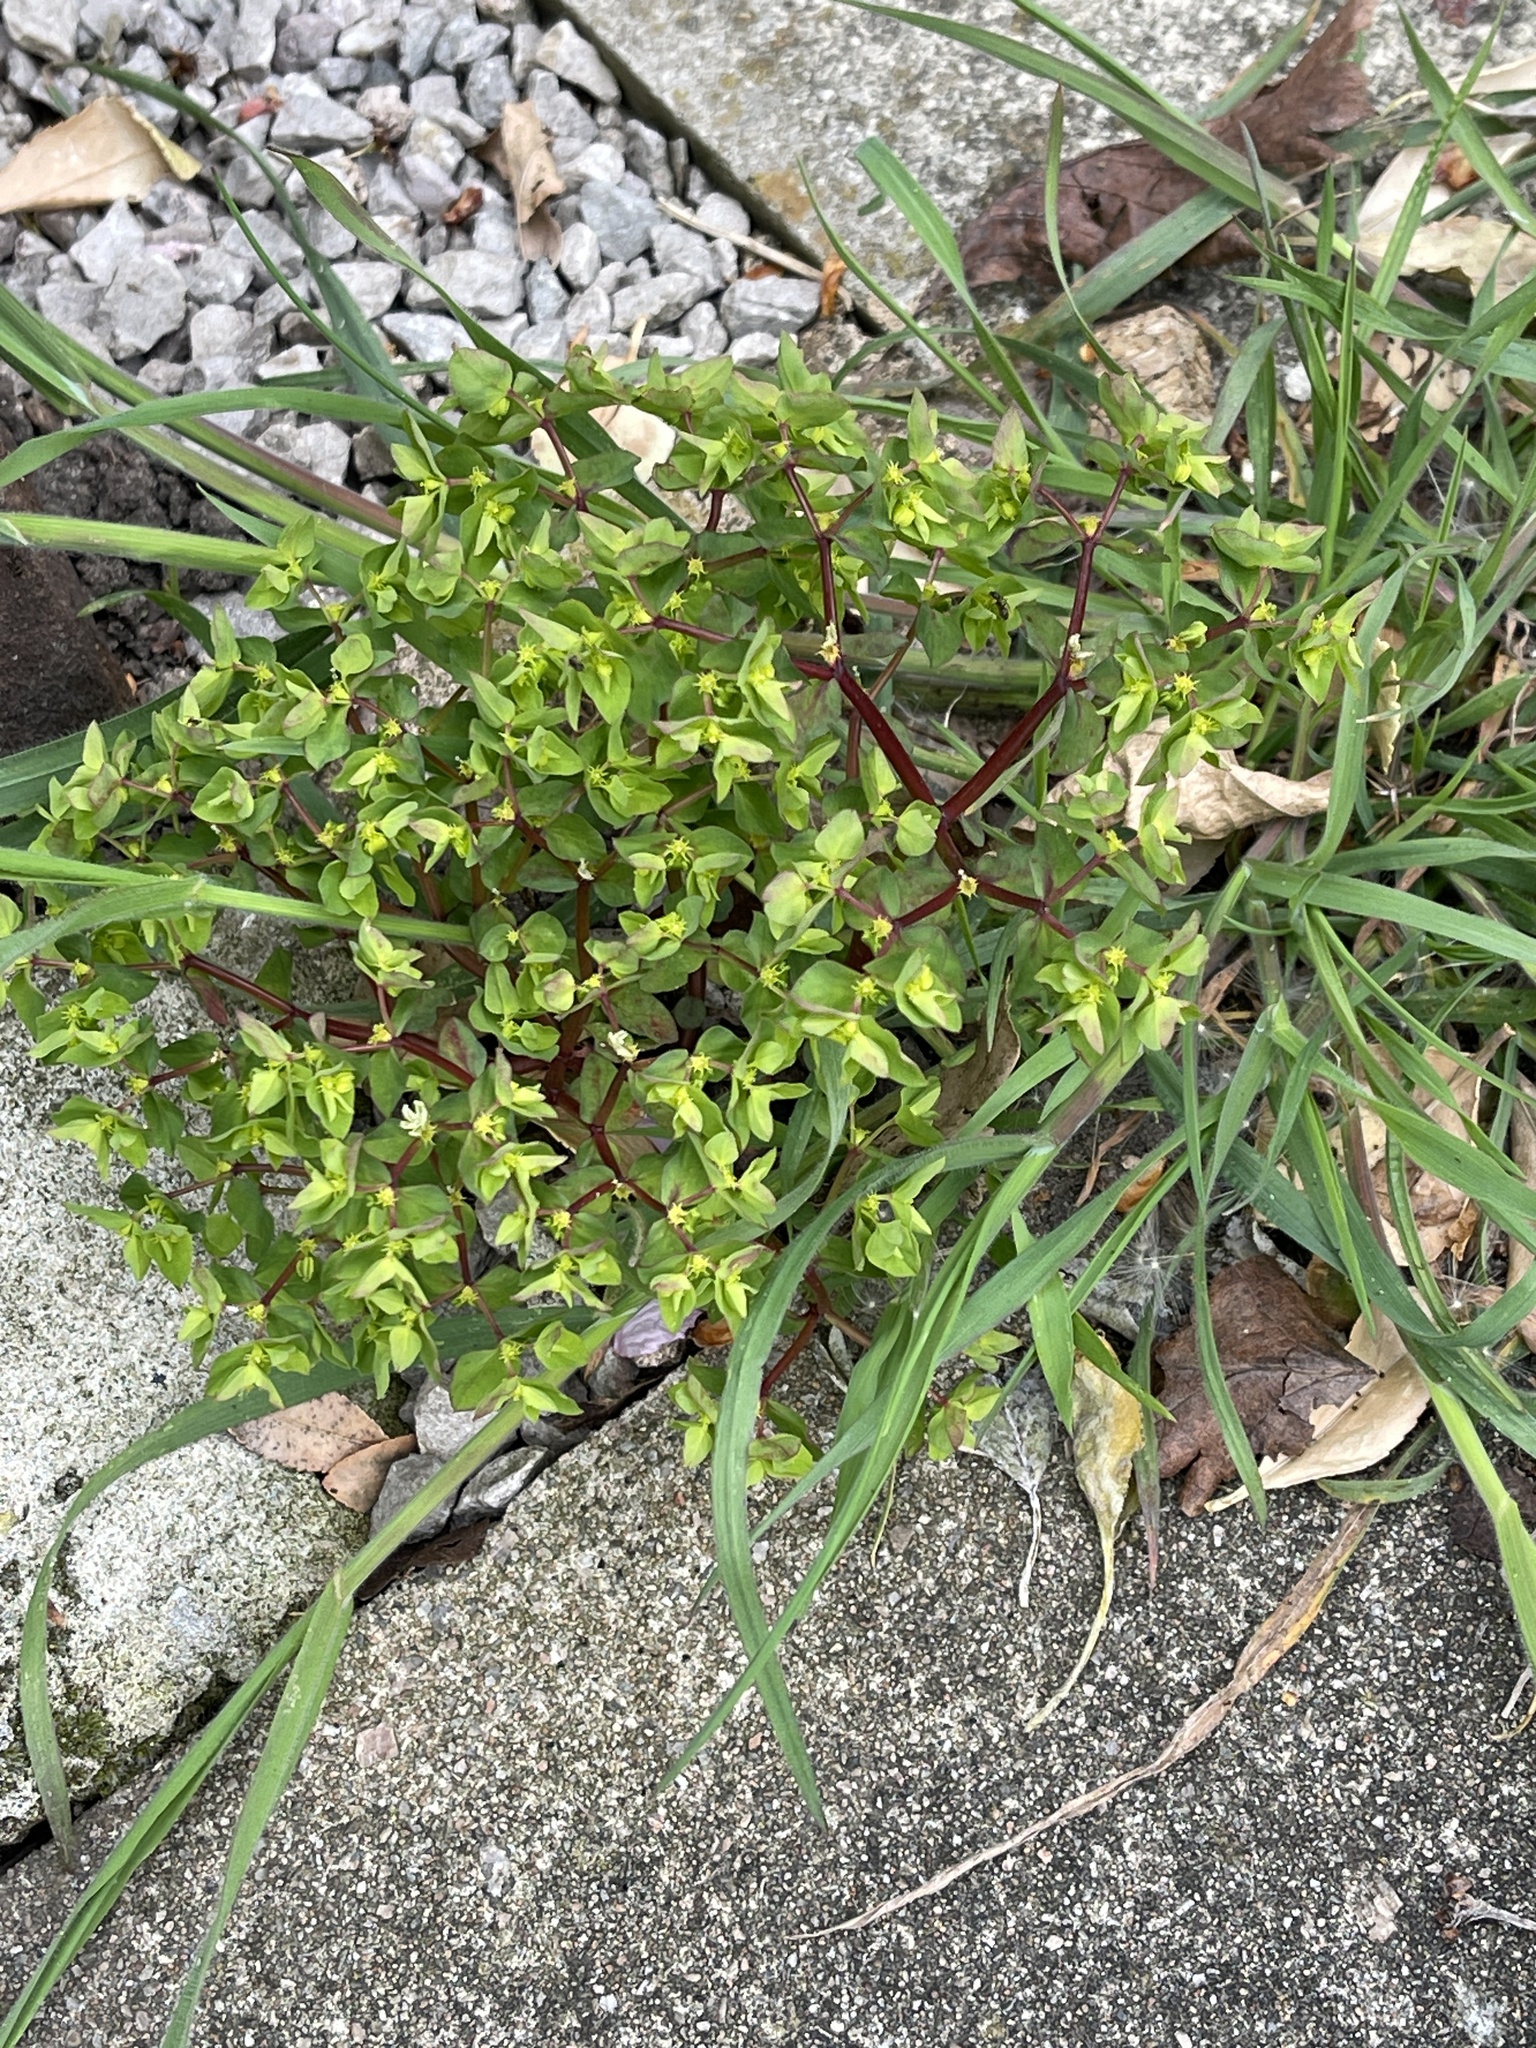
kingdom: Plantae
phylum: Tracheophyta
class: Magnoliopsida
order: Malpighiales
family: Euphorbiaceae
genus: Euphorbia
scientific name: Euphorbia peplus
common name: Petty spurge
